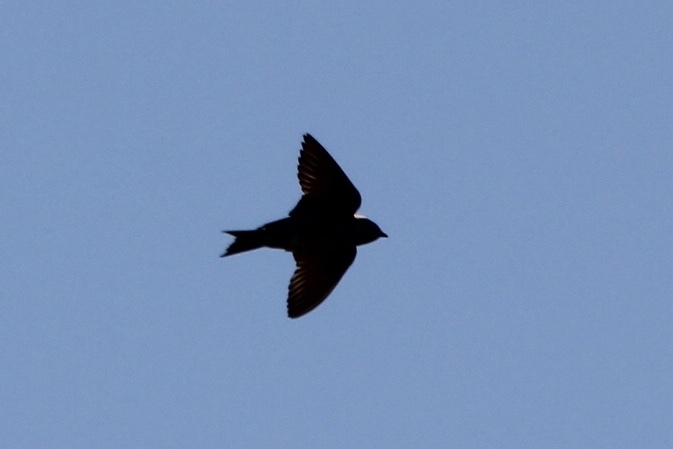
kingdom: Animalia
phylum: Chordata
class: Aves
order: Passeriformes
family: Hirundinidae
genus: Progne
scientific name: Progne subis
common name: Purple martin
